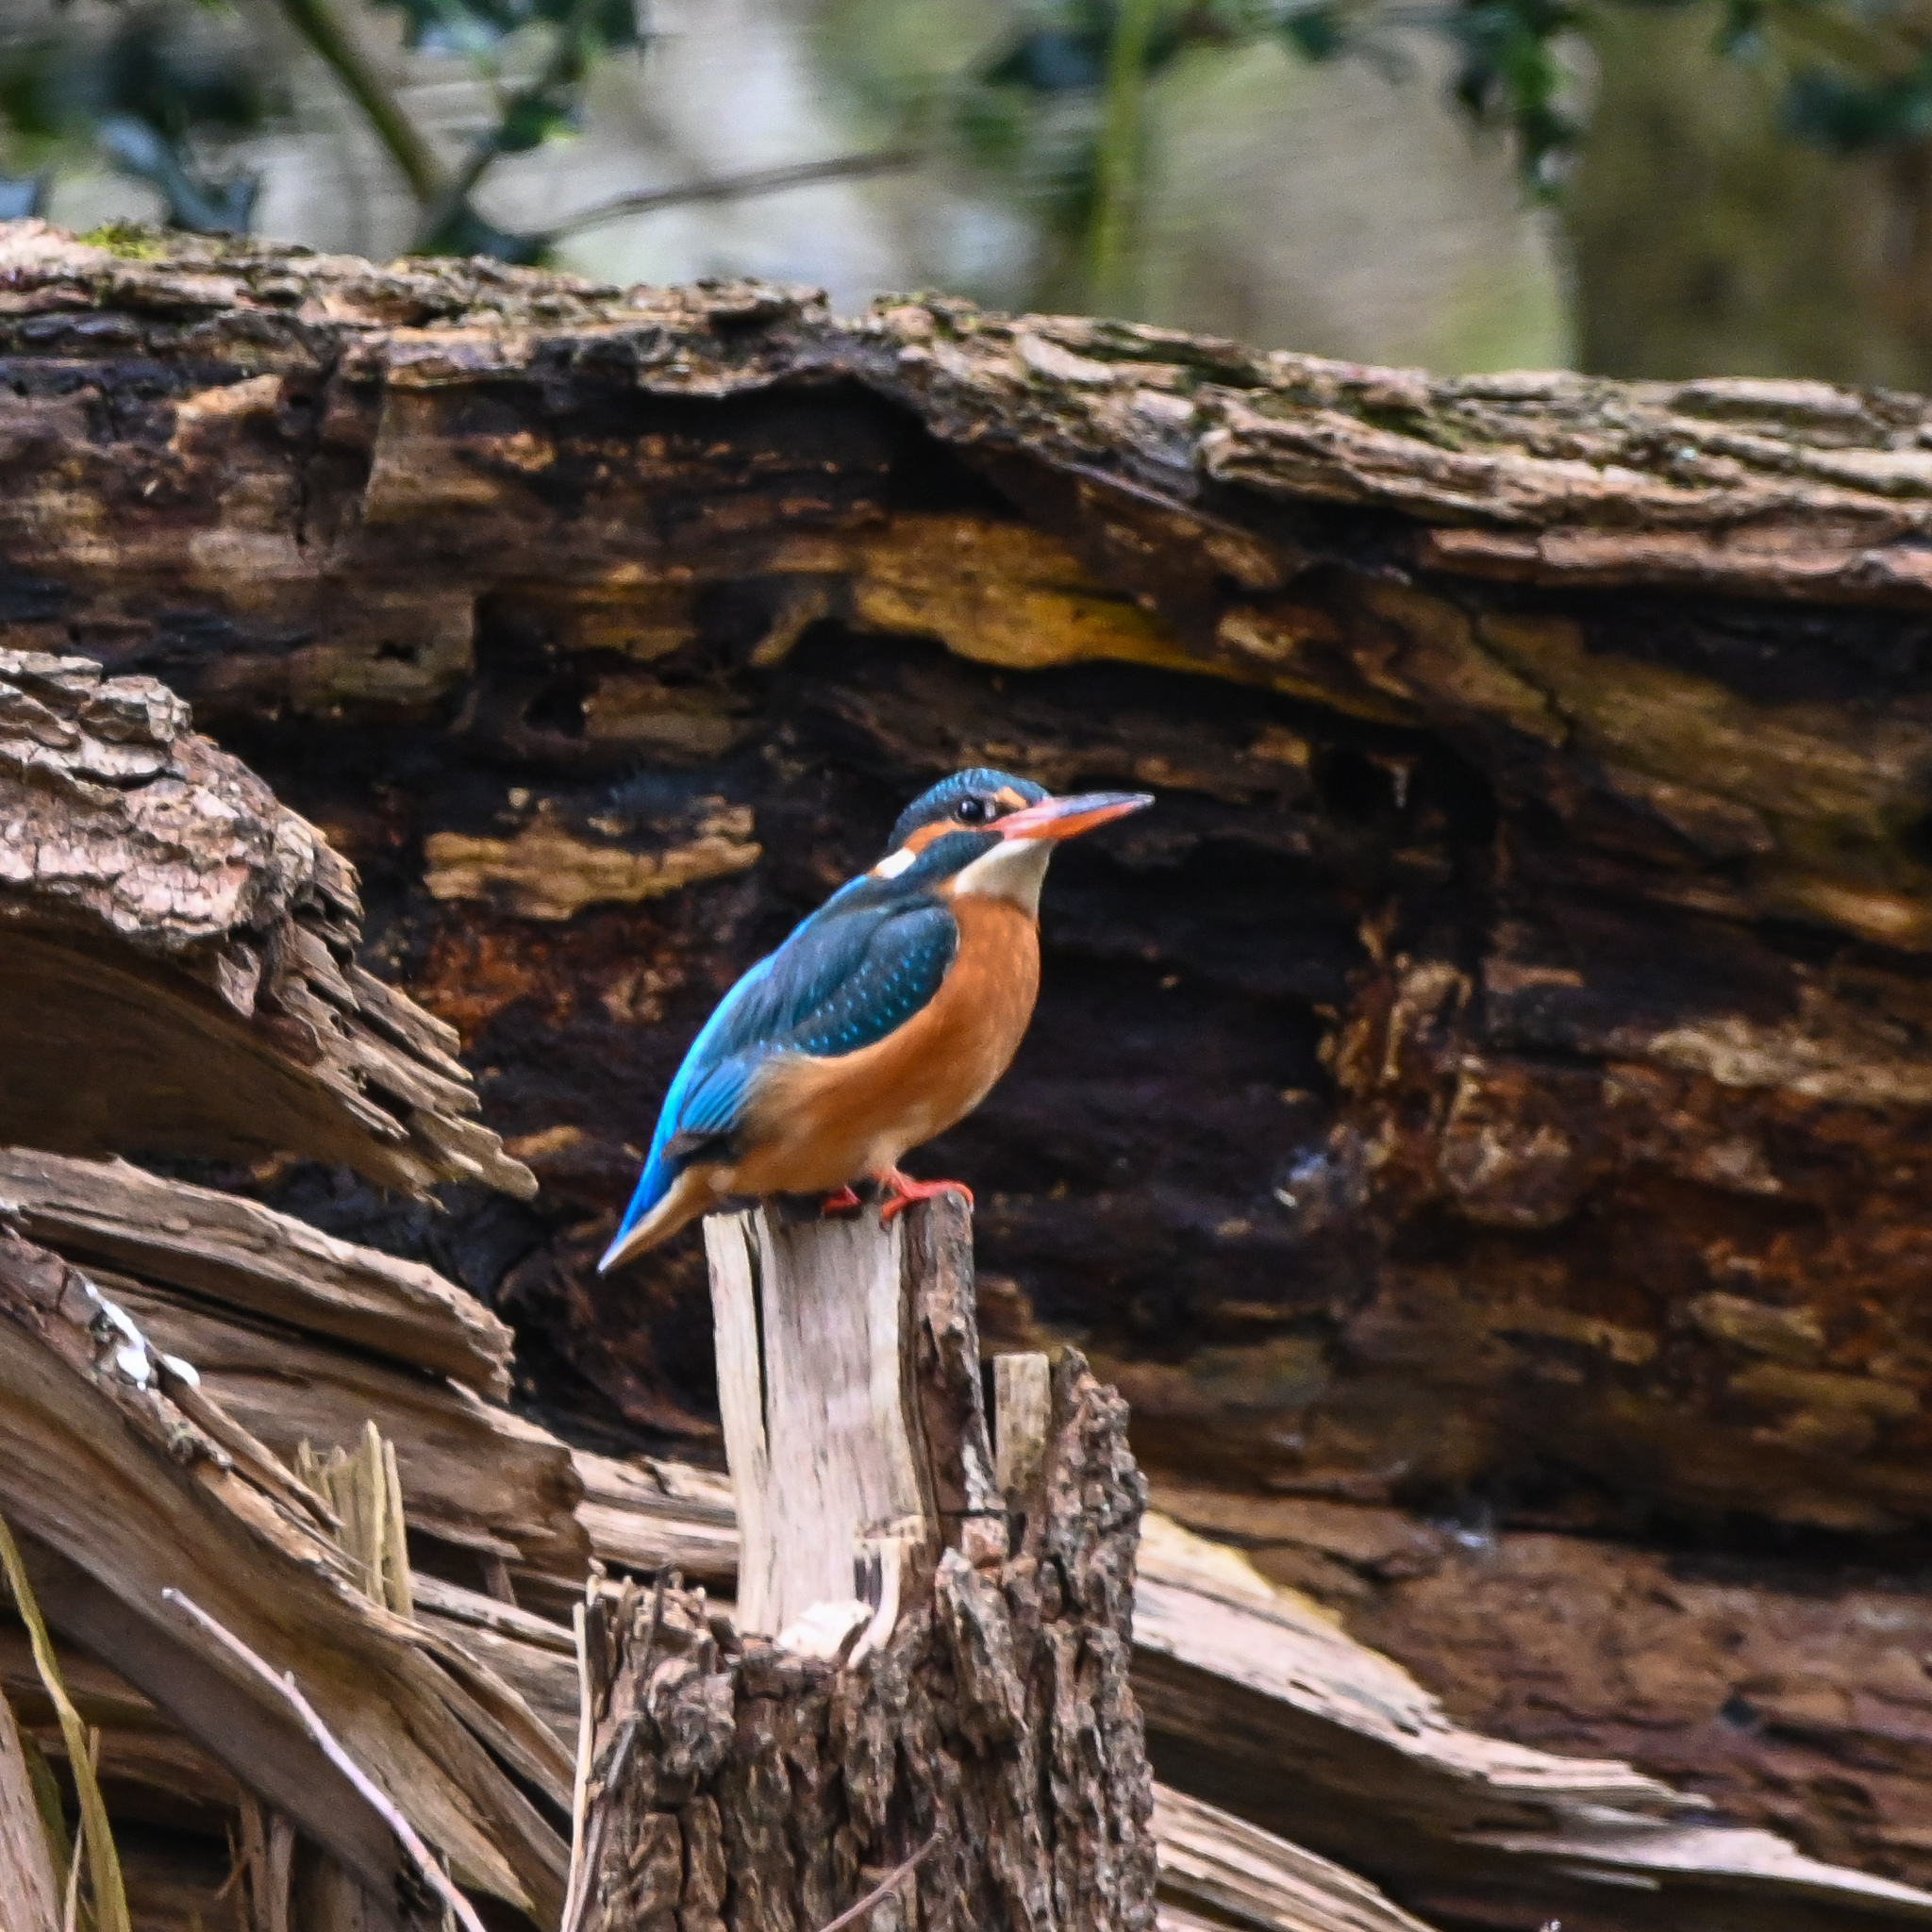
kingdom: Animalia
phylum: Chordata
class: Aves
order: Coraciiformes
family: Alcedinidae
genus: Alcedo
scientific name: Alcedo atthis
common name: Common kingfisher
